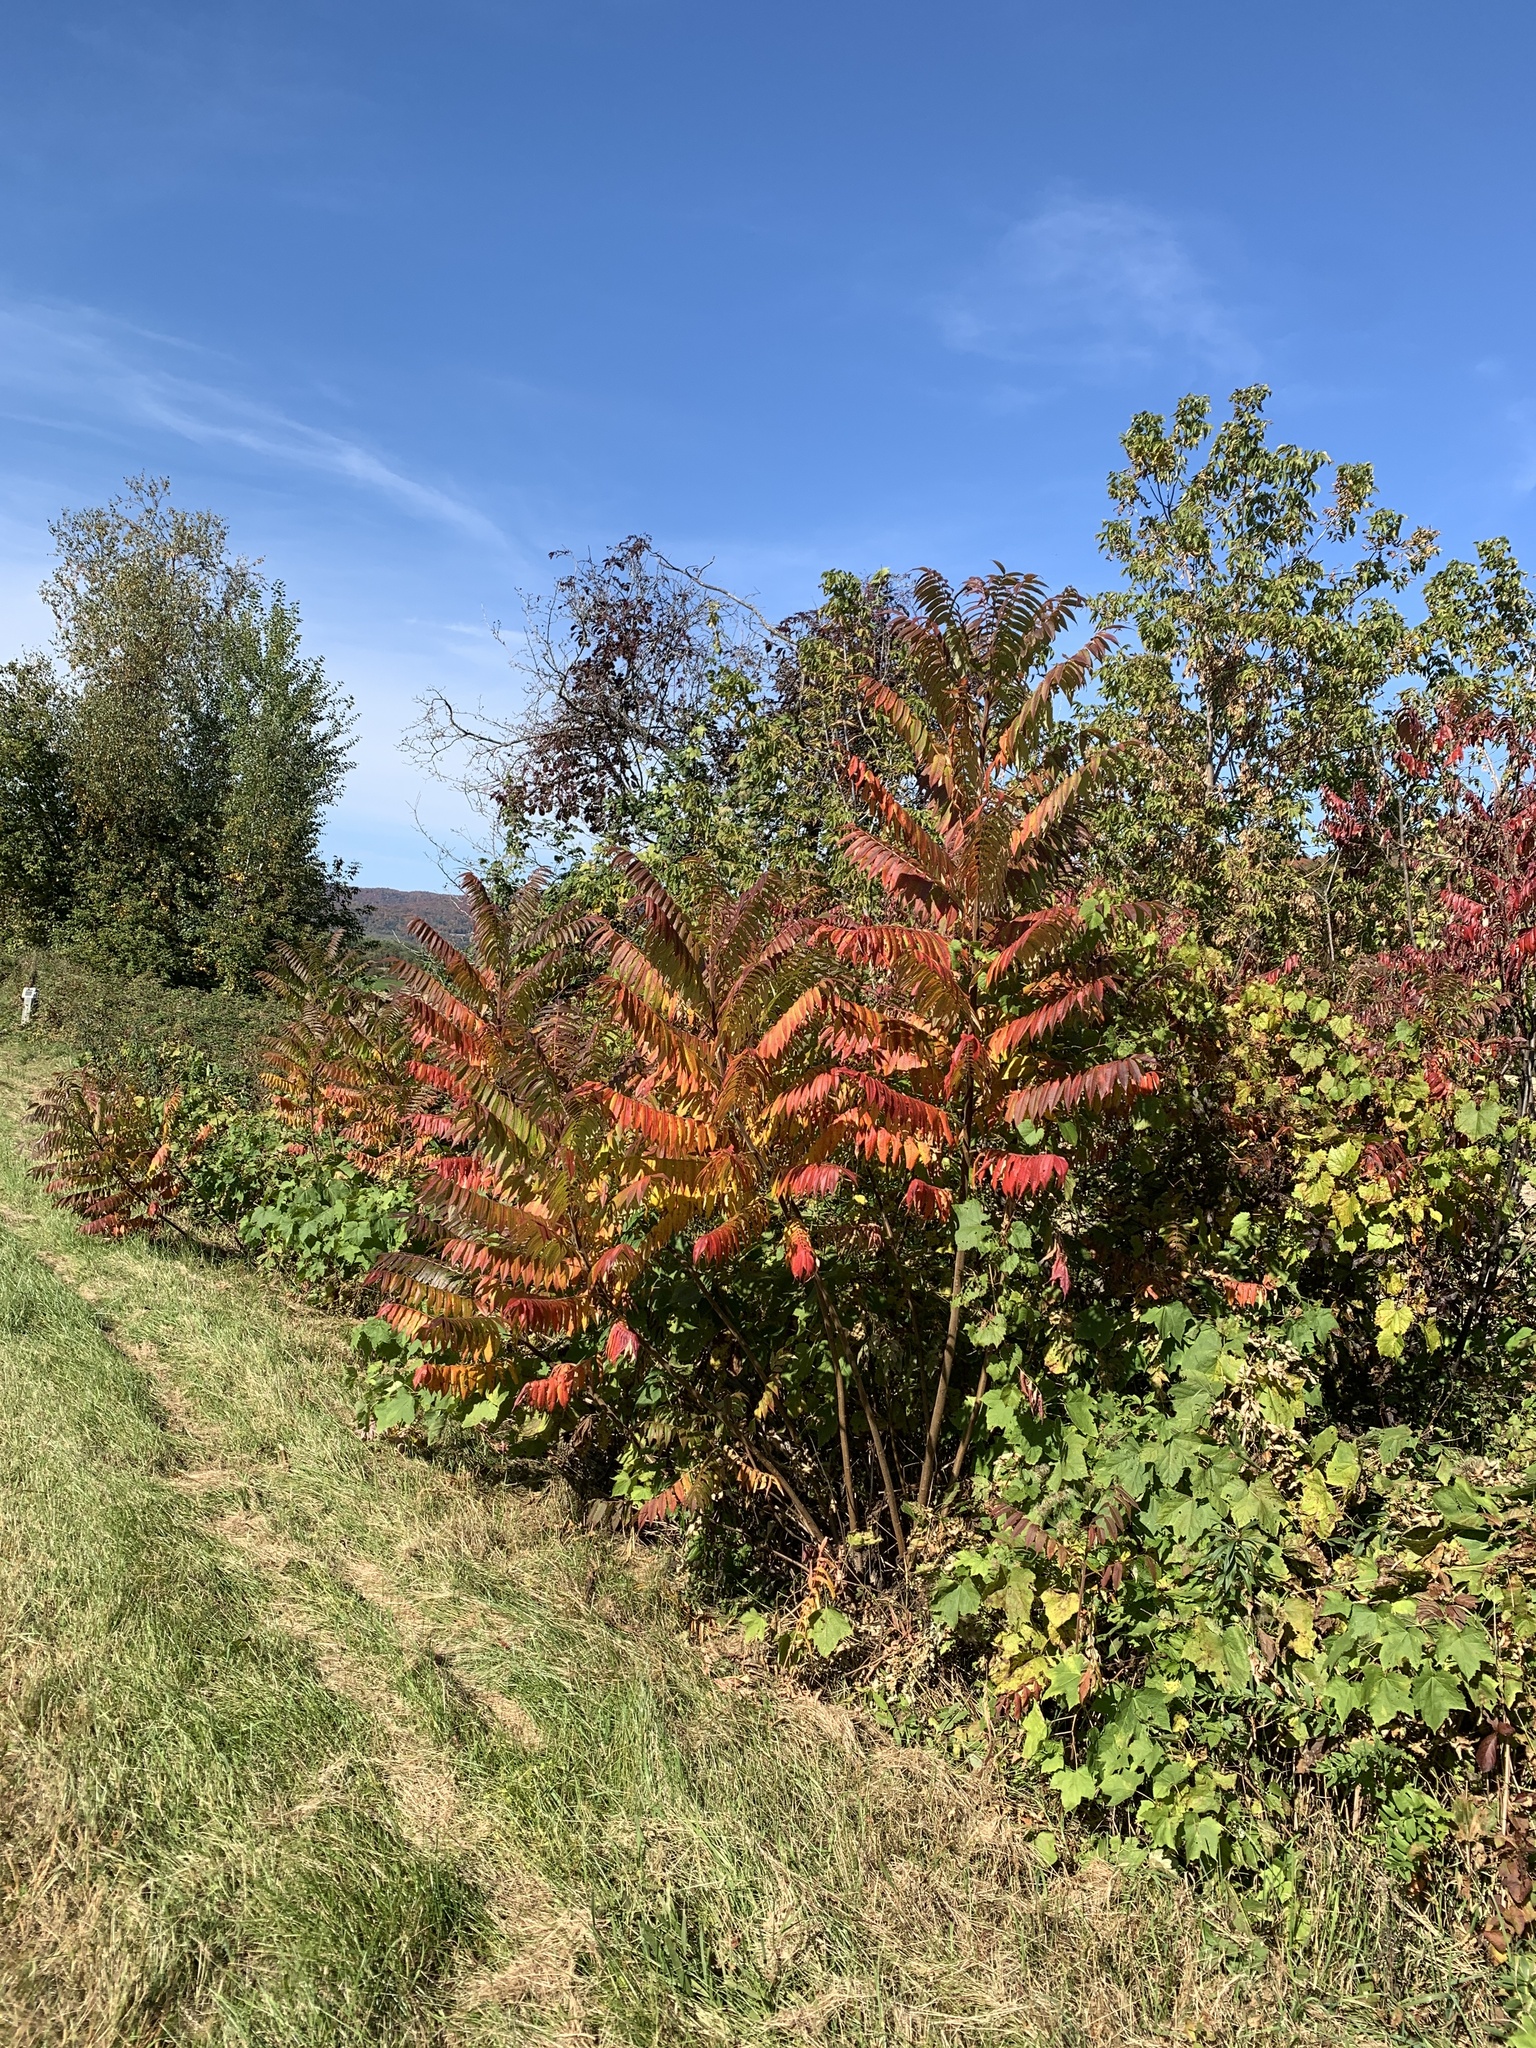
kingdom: Plantae
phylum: Tracheophyta
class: Magnoliopsida
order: Sapindales
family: Anacardiaceae
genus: Rhus
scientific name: Rhus typhina
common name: Staghorn sumac
